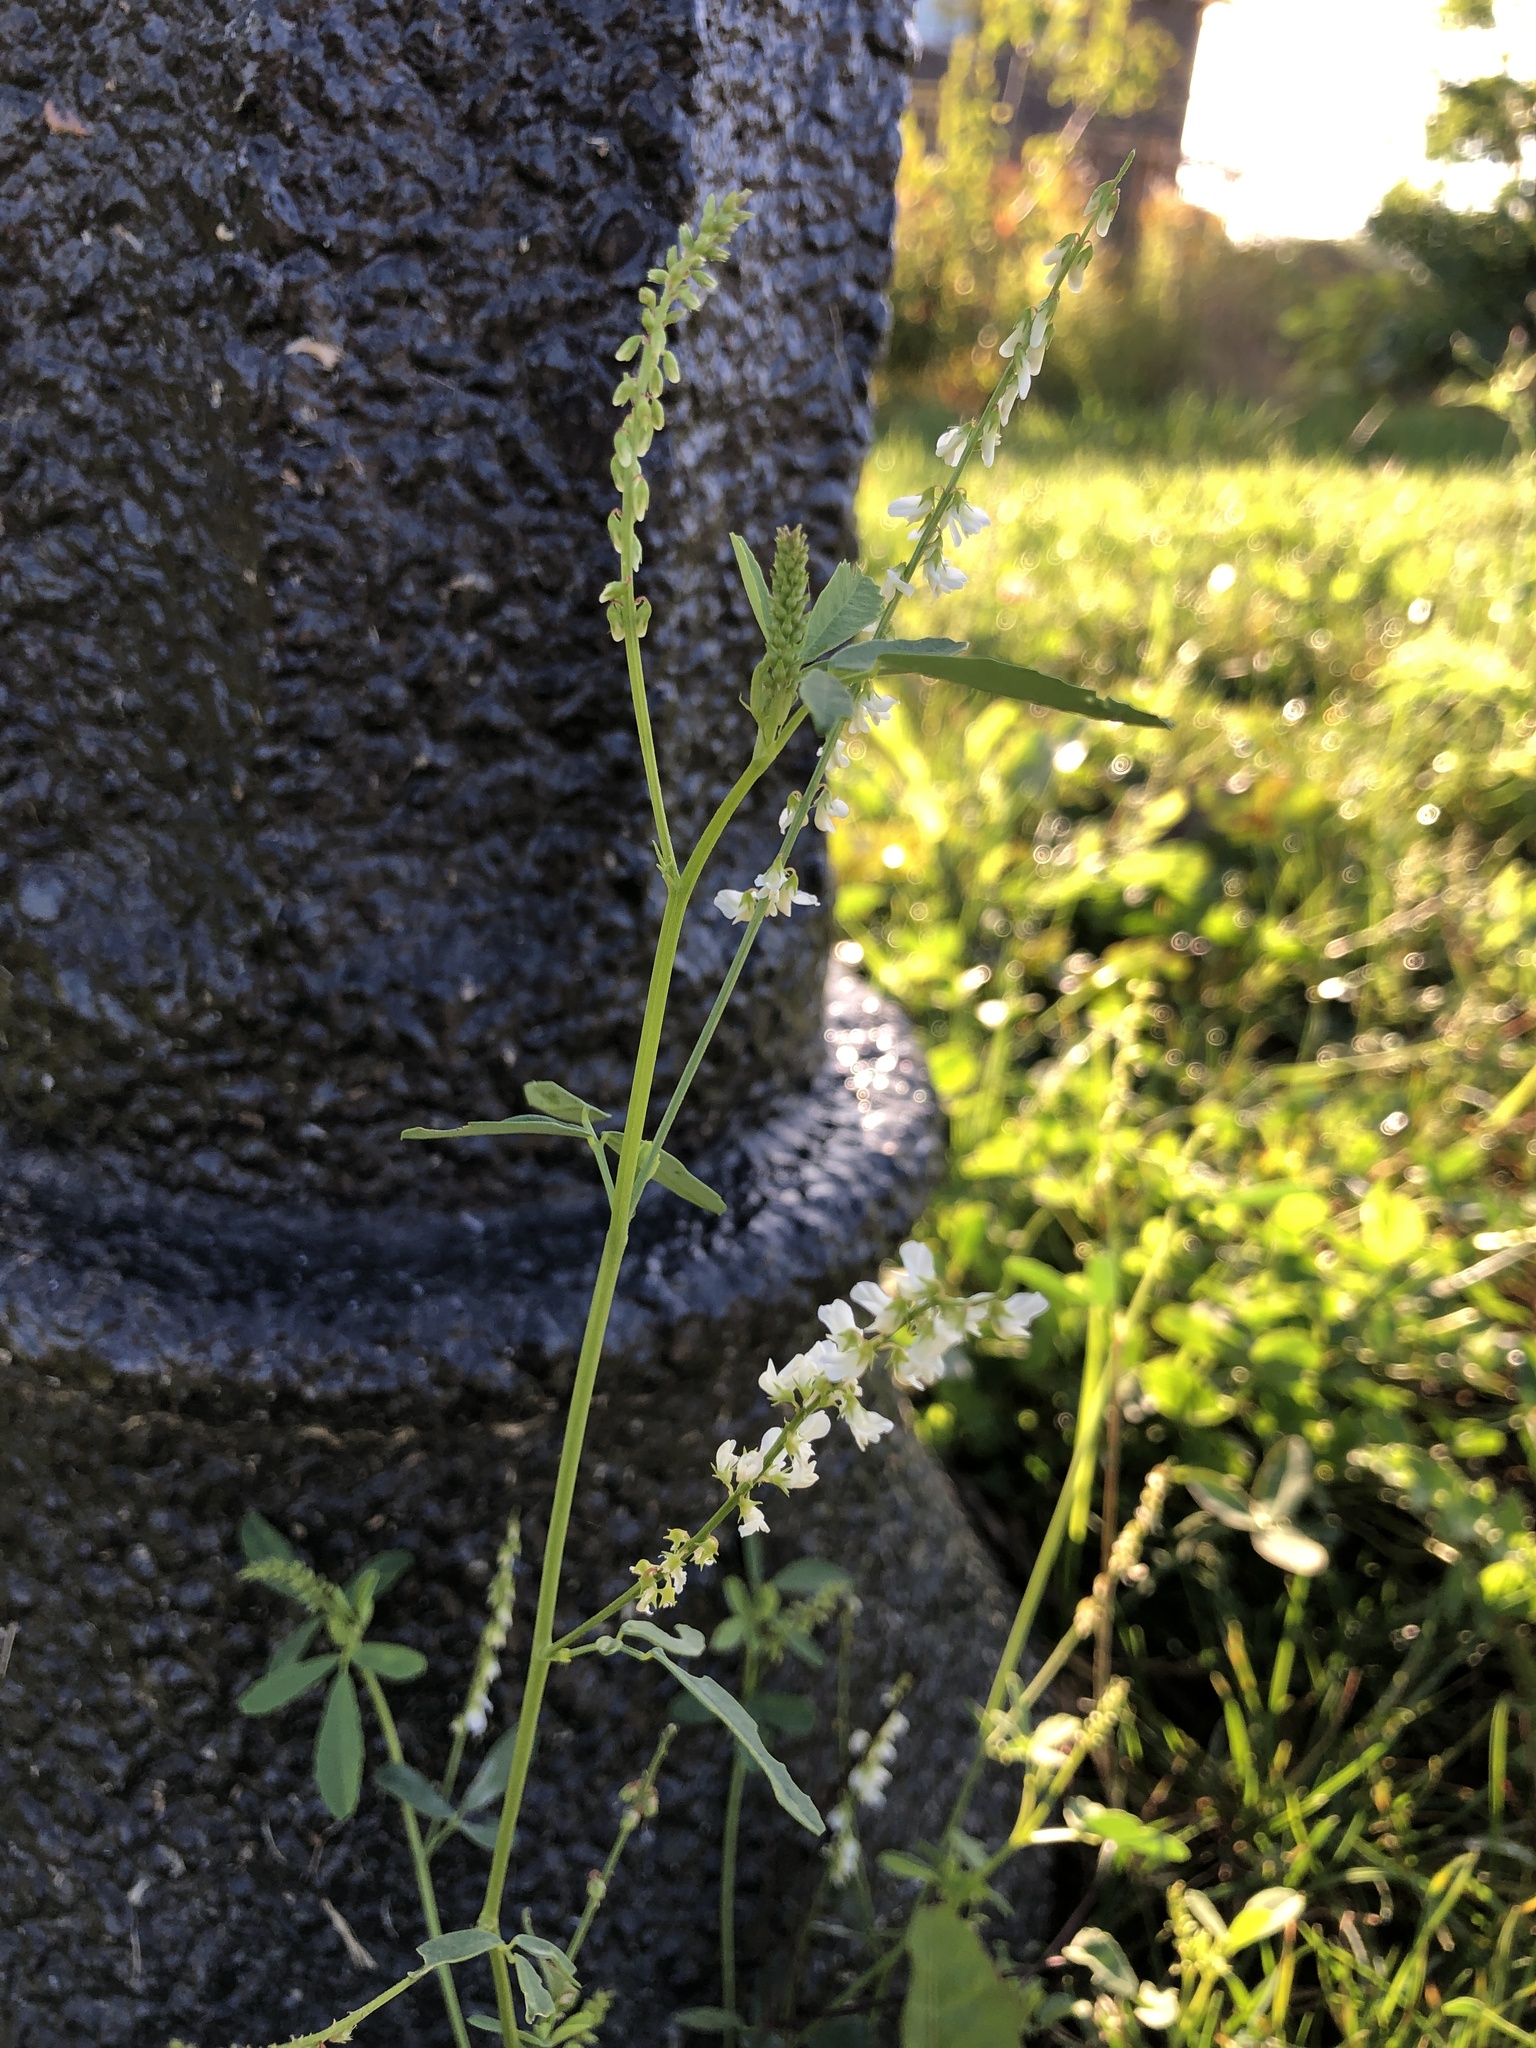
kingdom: Plantae
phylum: Tracheophyta
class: Magnoliopsida
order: Fabales
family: Fabaceae
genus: Melilotus
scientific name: Melilotus albus
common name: White melilot
